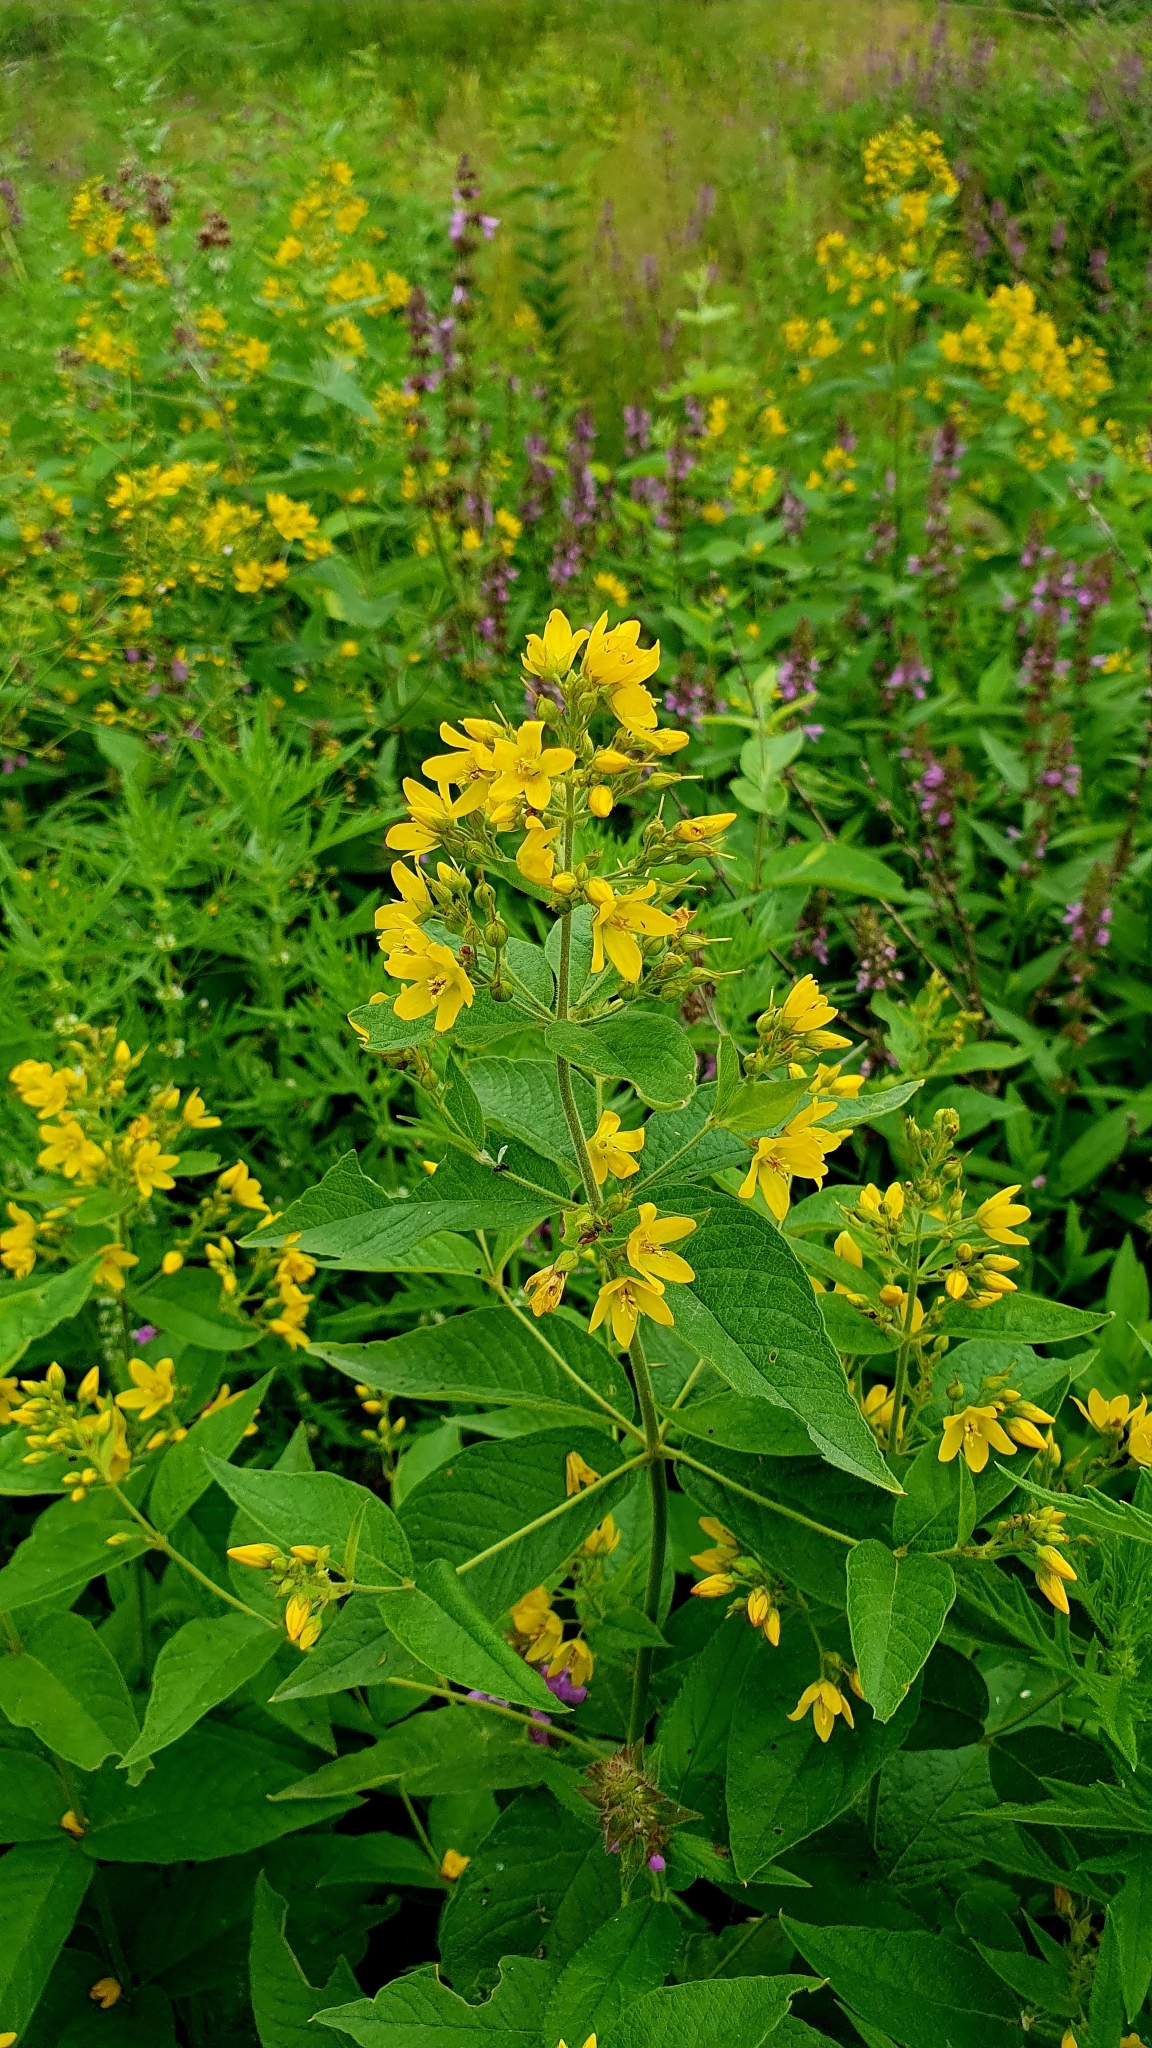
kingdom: Plantae
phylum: Tracheophyta
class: Magnoliopsida
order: Ericales
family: Primulaceae
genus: Lysimachia
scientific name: Lysimachia vulgaris
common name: Yellow loosestrife
